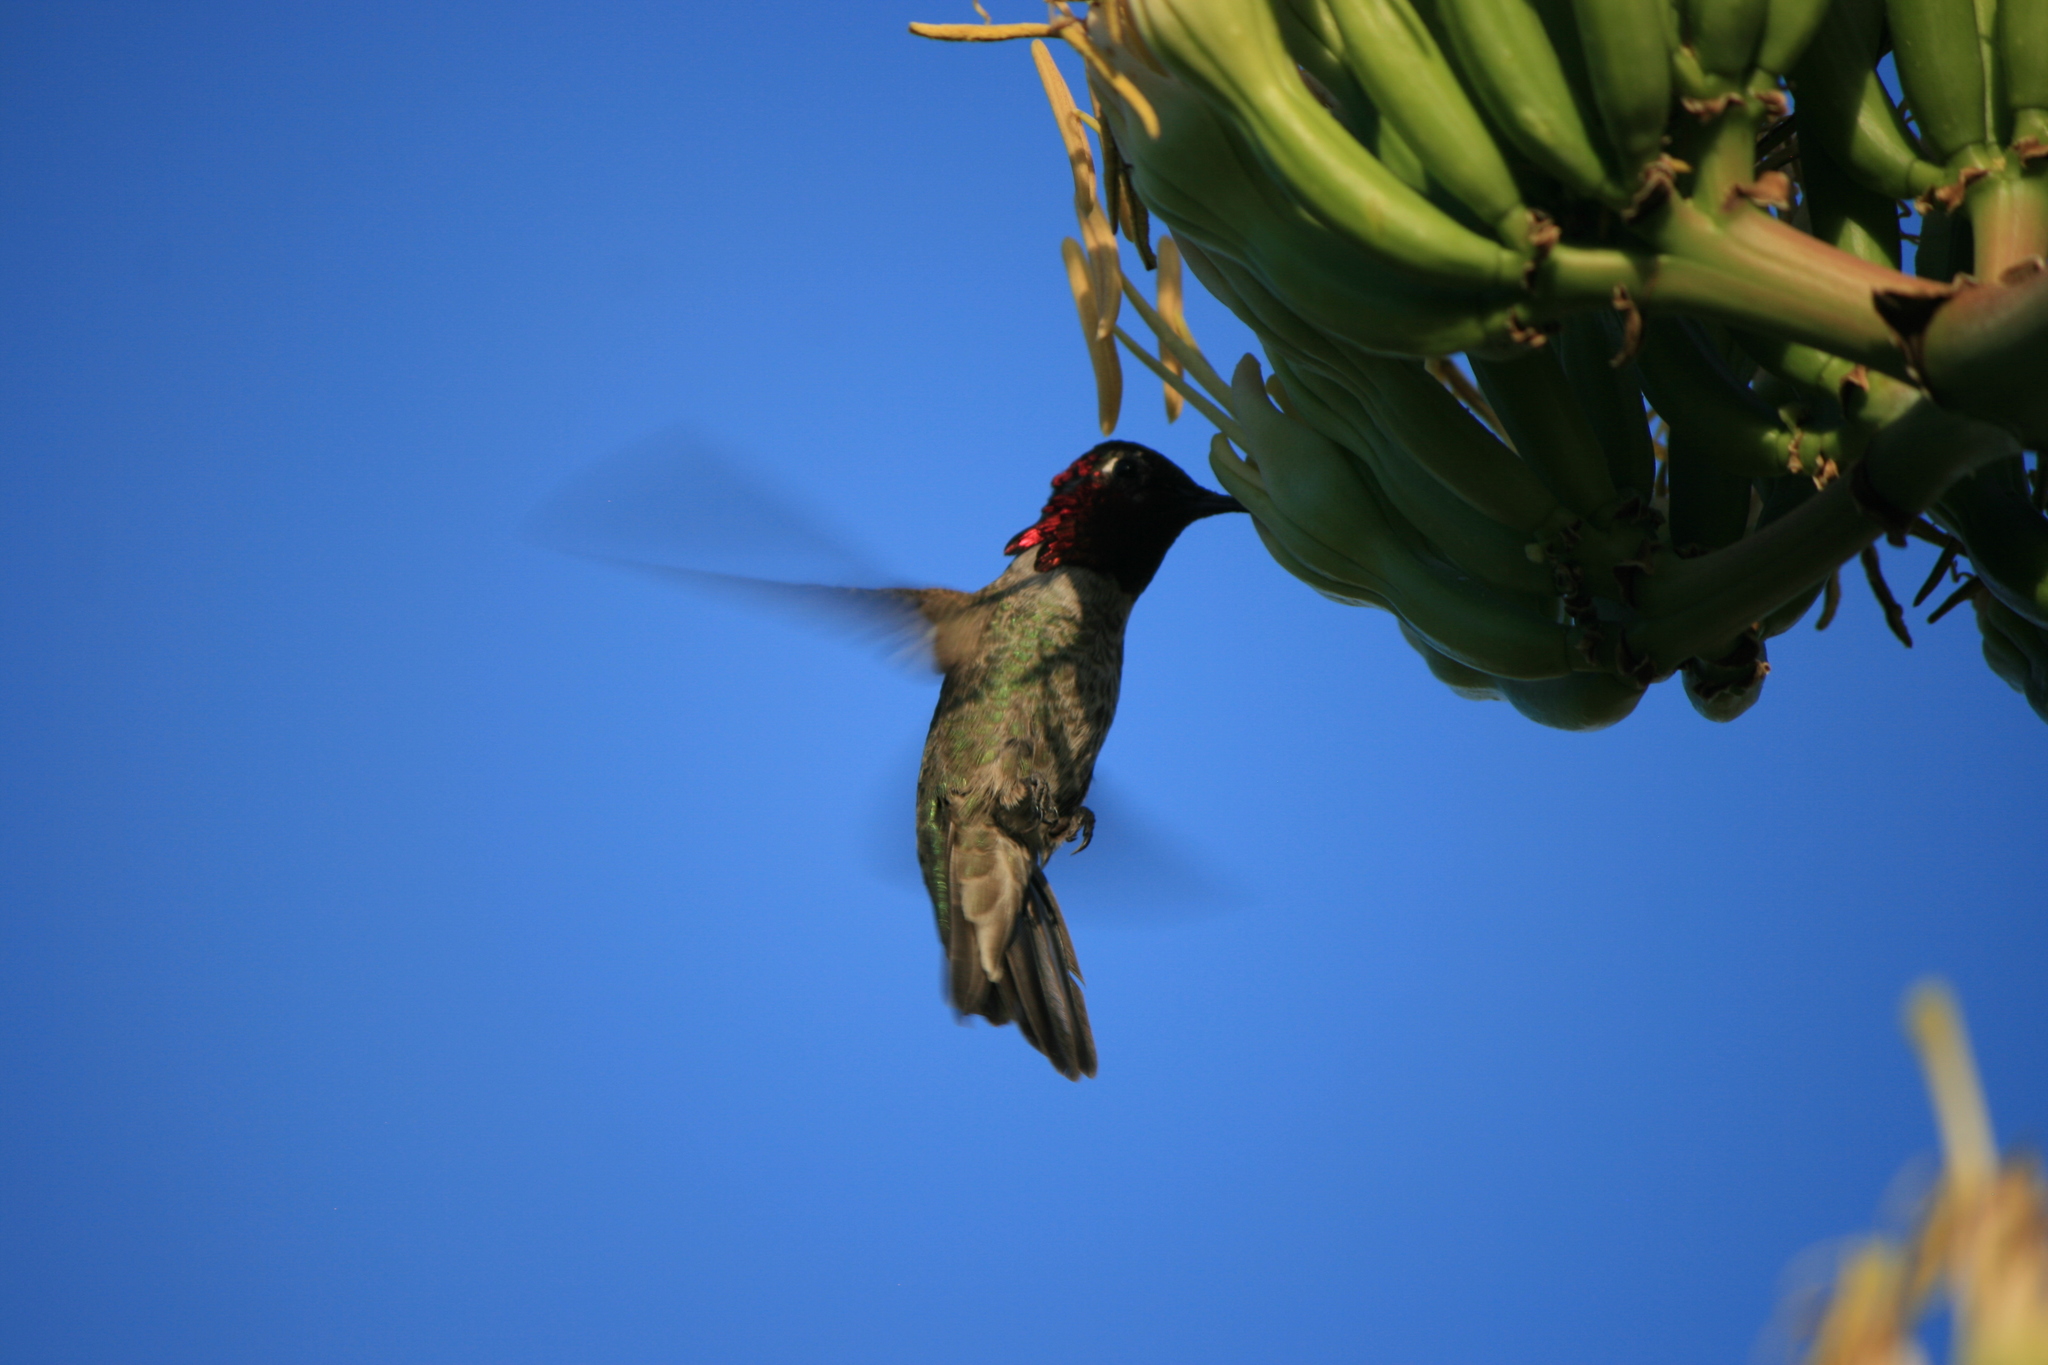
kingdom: Animalia
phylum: Chordata
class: Aves
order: Apodiformes
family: Trochilidae
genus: Calypte
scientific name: Calypte anna
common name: Anna's hummingbird
